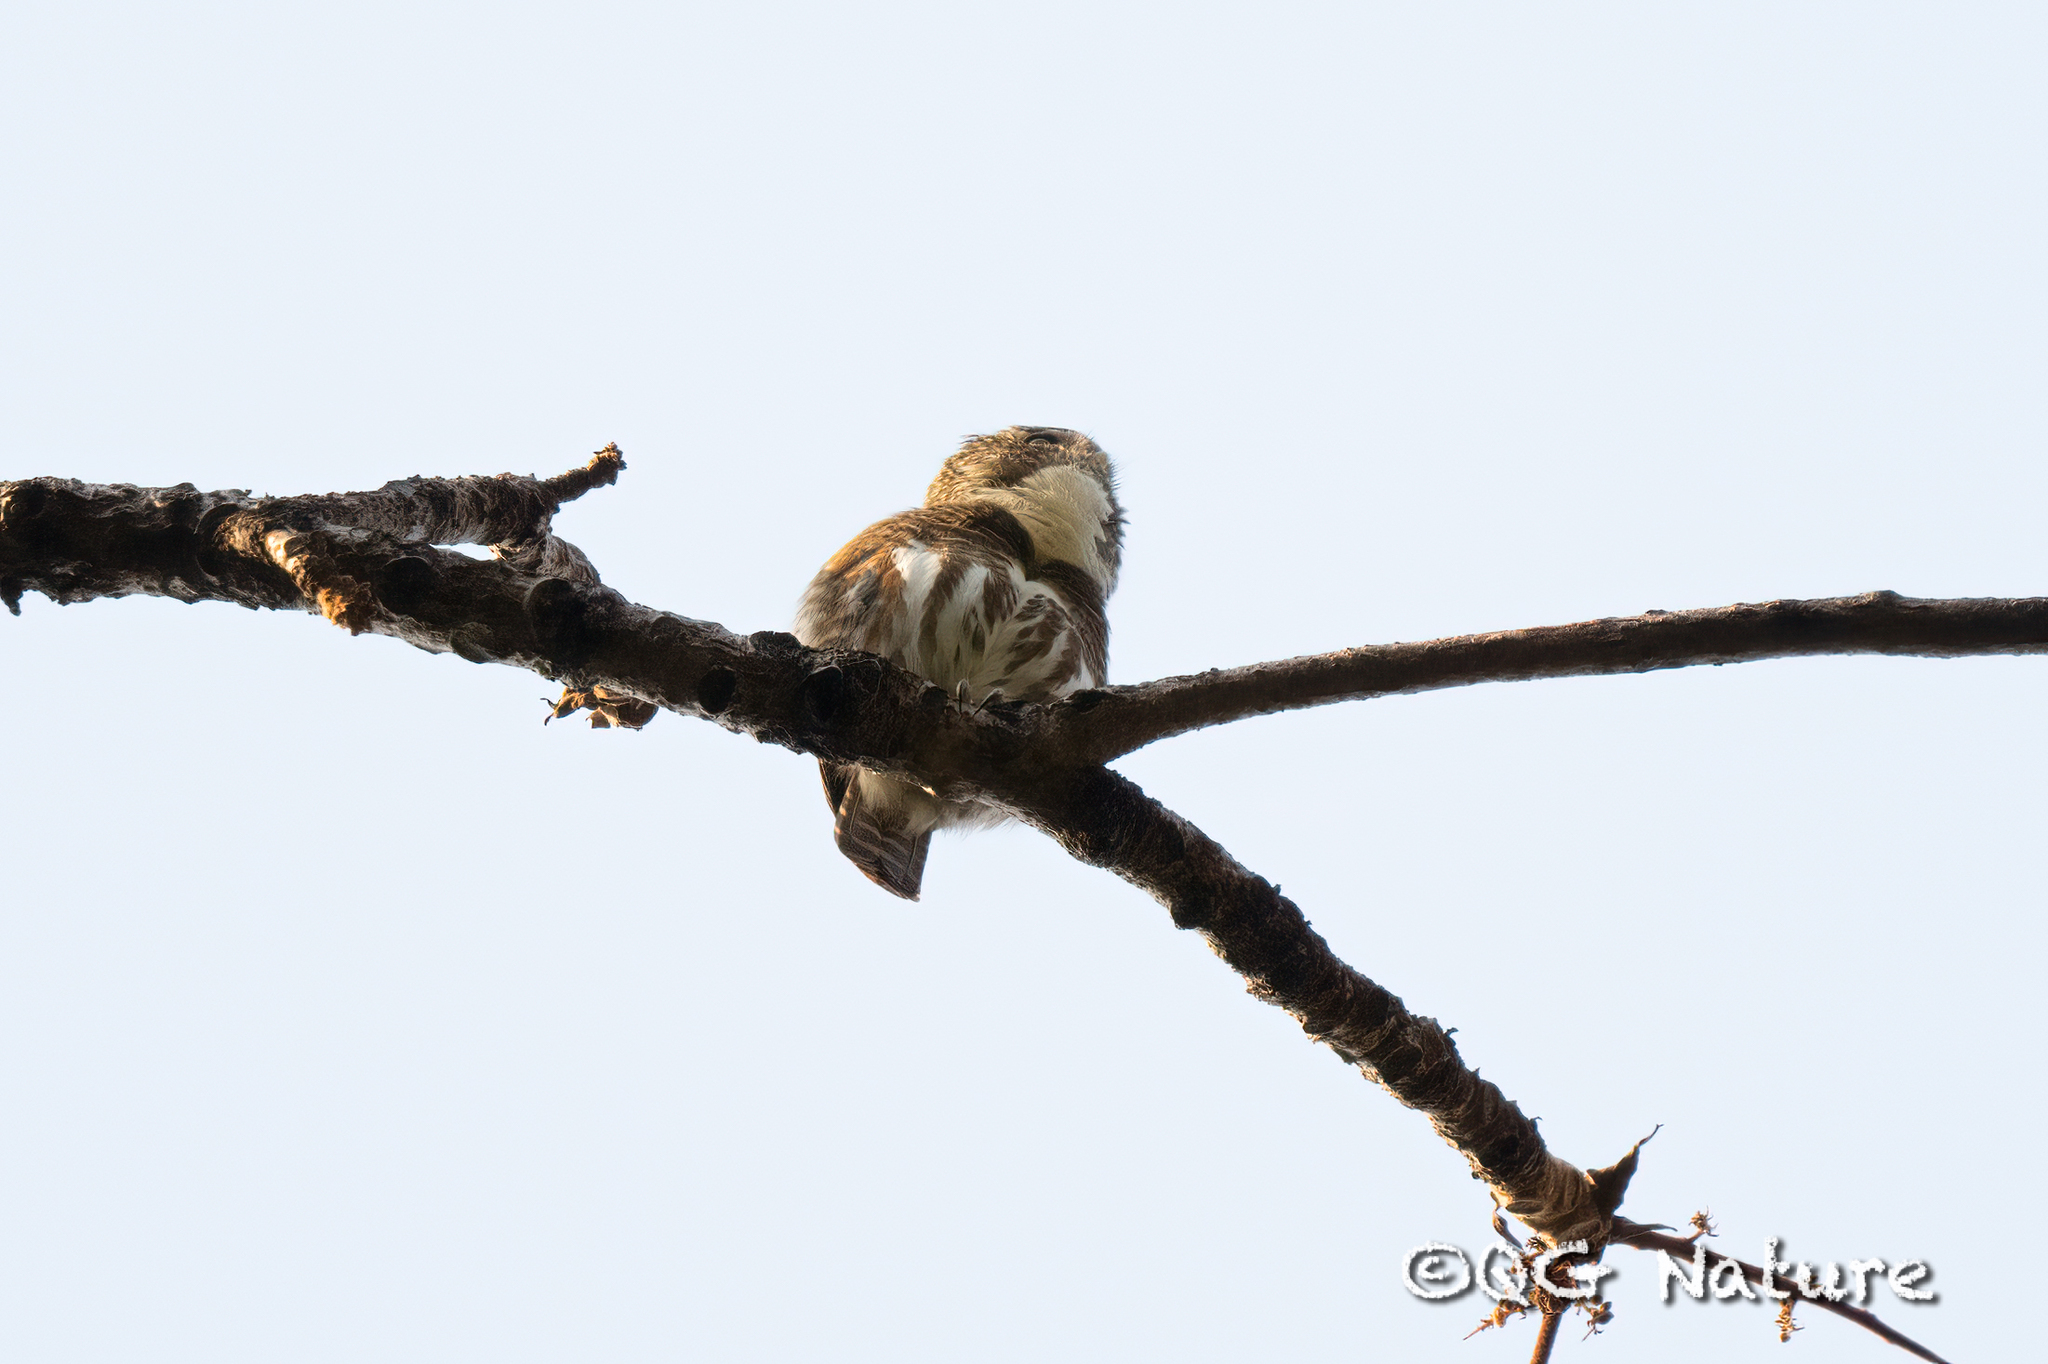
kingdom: Animalia
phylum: Chordata
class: Aves
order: Strigiformes
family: Strigidae
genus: Glaucidium
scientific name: Glaucidium brodiei
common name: Collared owlet
